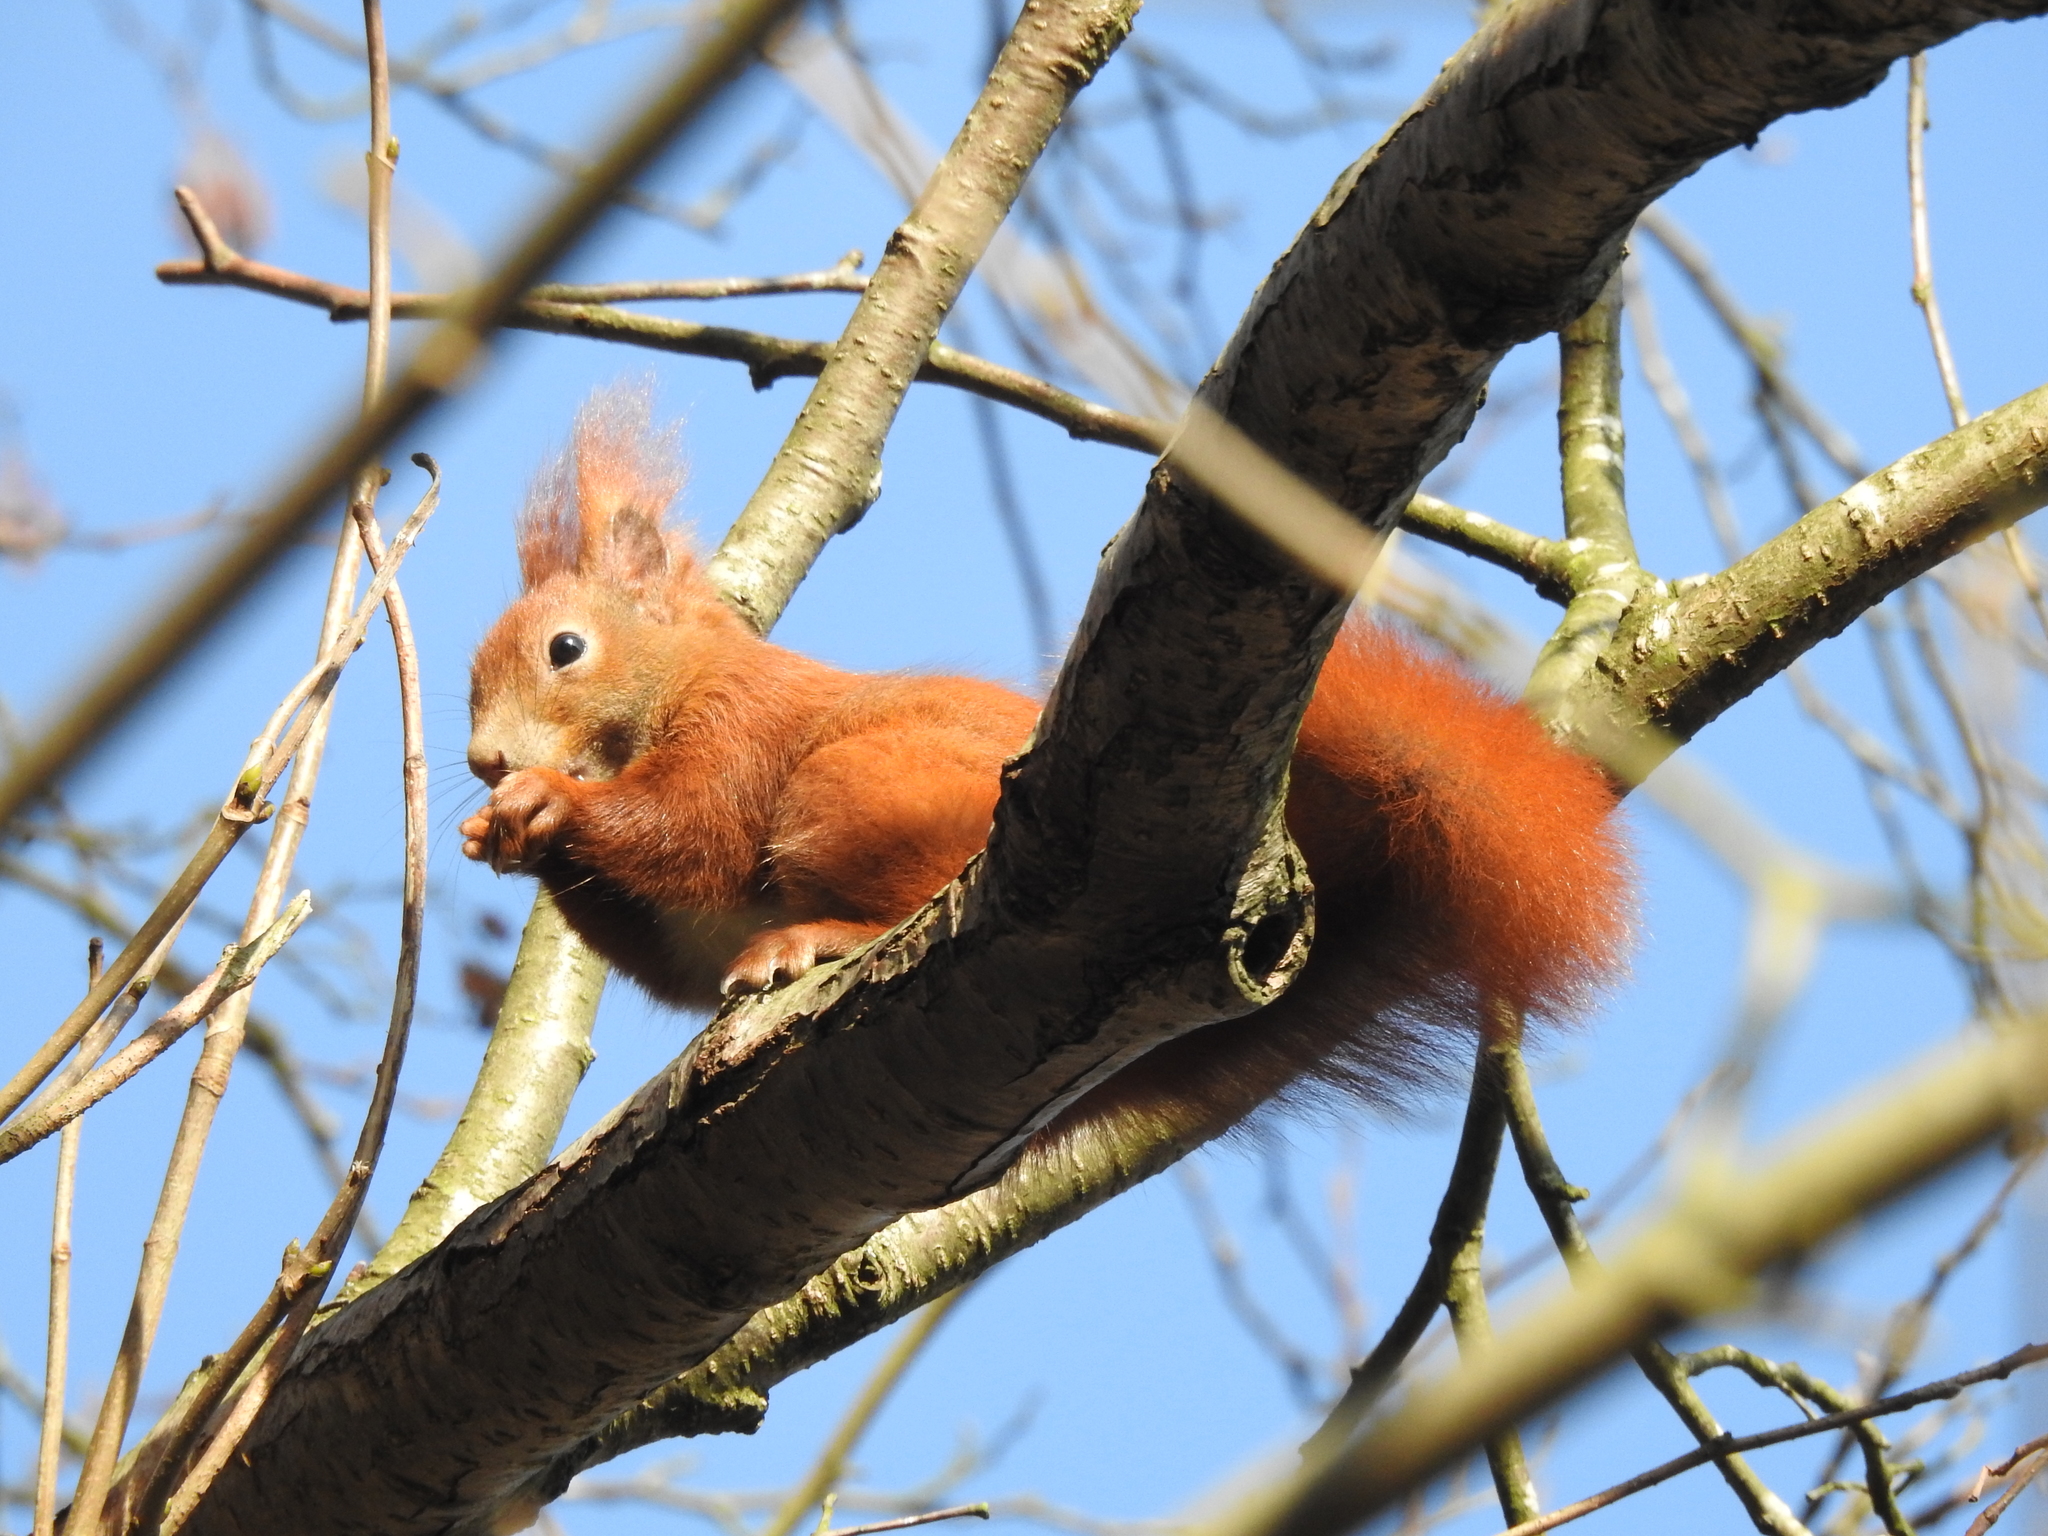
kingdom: Animalia
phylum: Chordata
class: Mammalia
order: Rodentia
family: Sciuridae
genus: Sciurus
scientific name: Sciurus vulgaris
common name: Eurasian red squirrel
